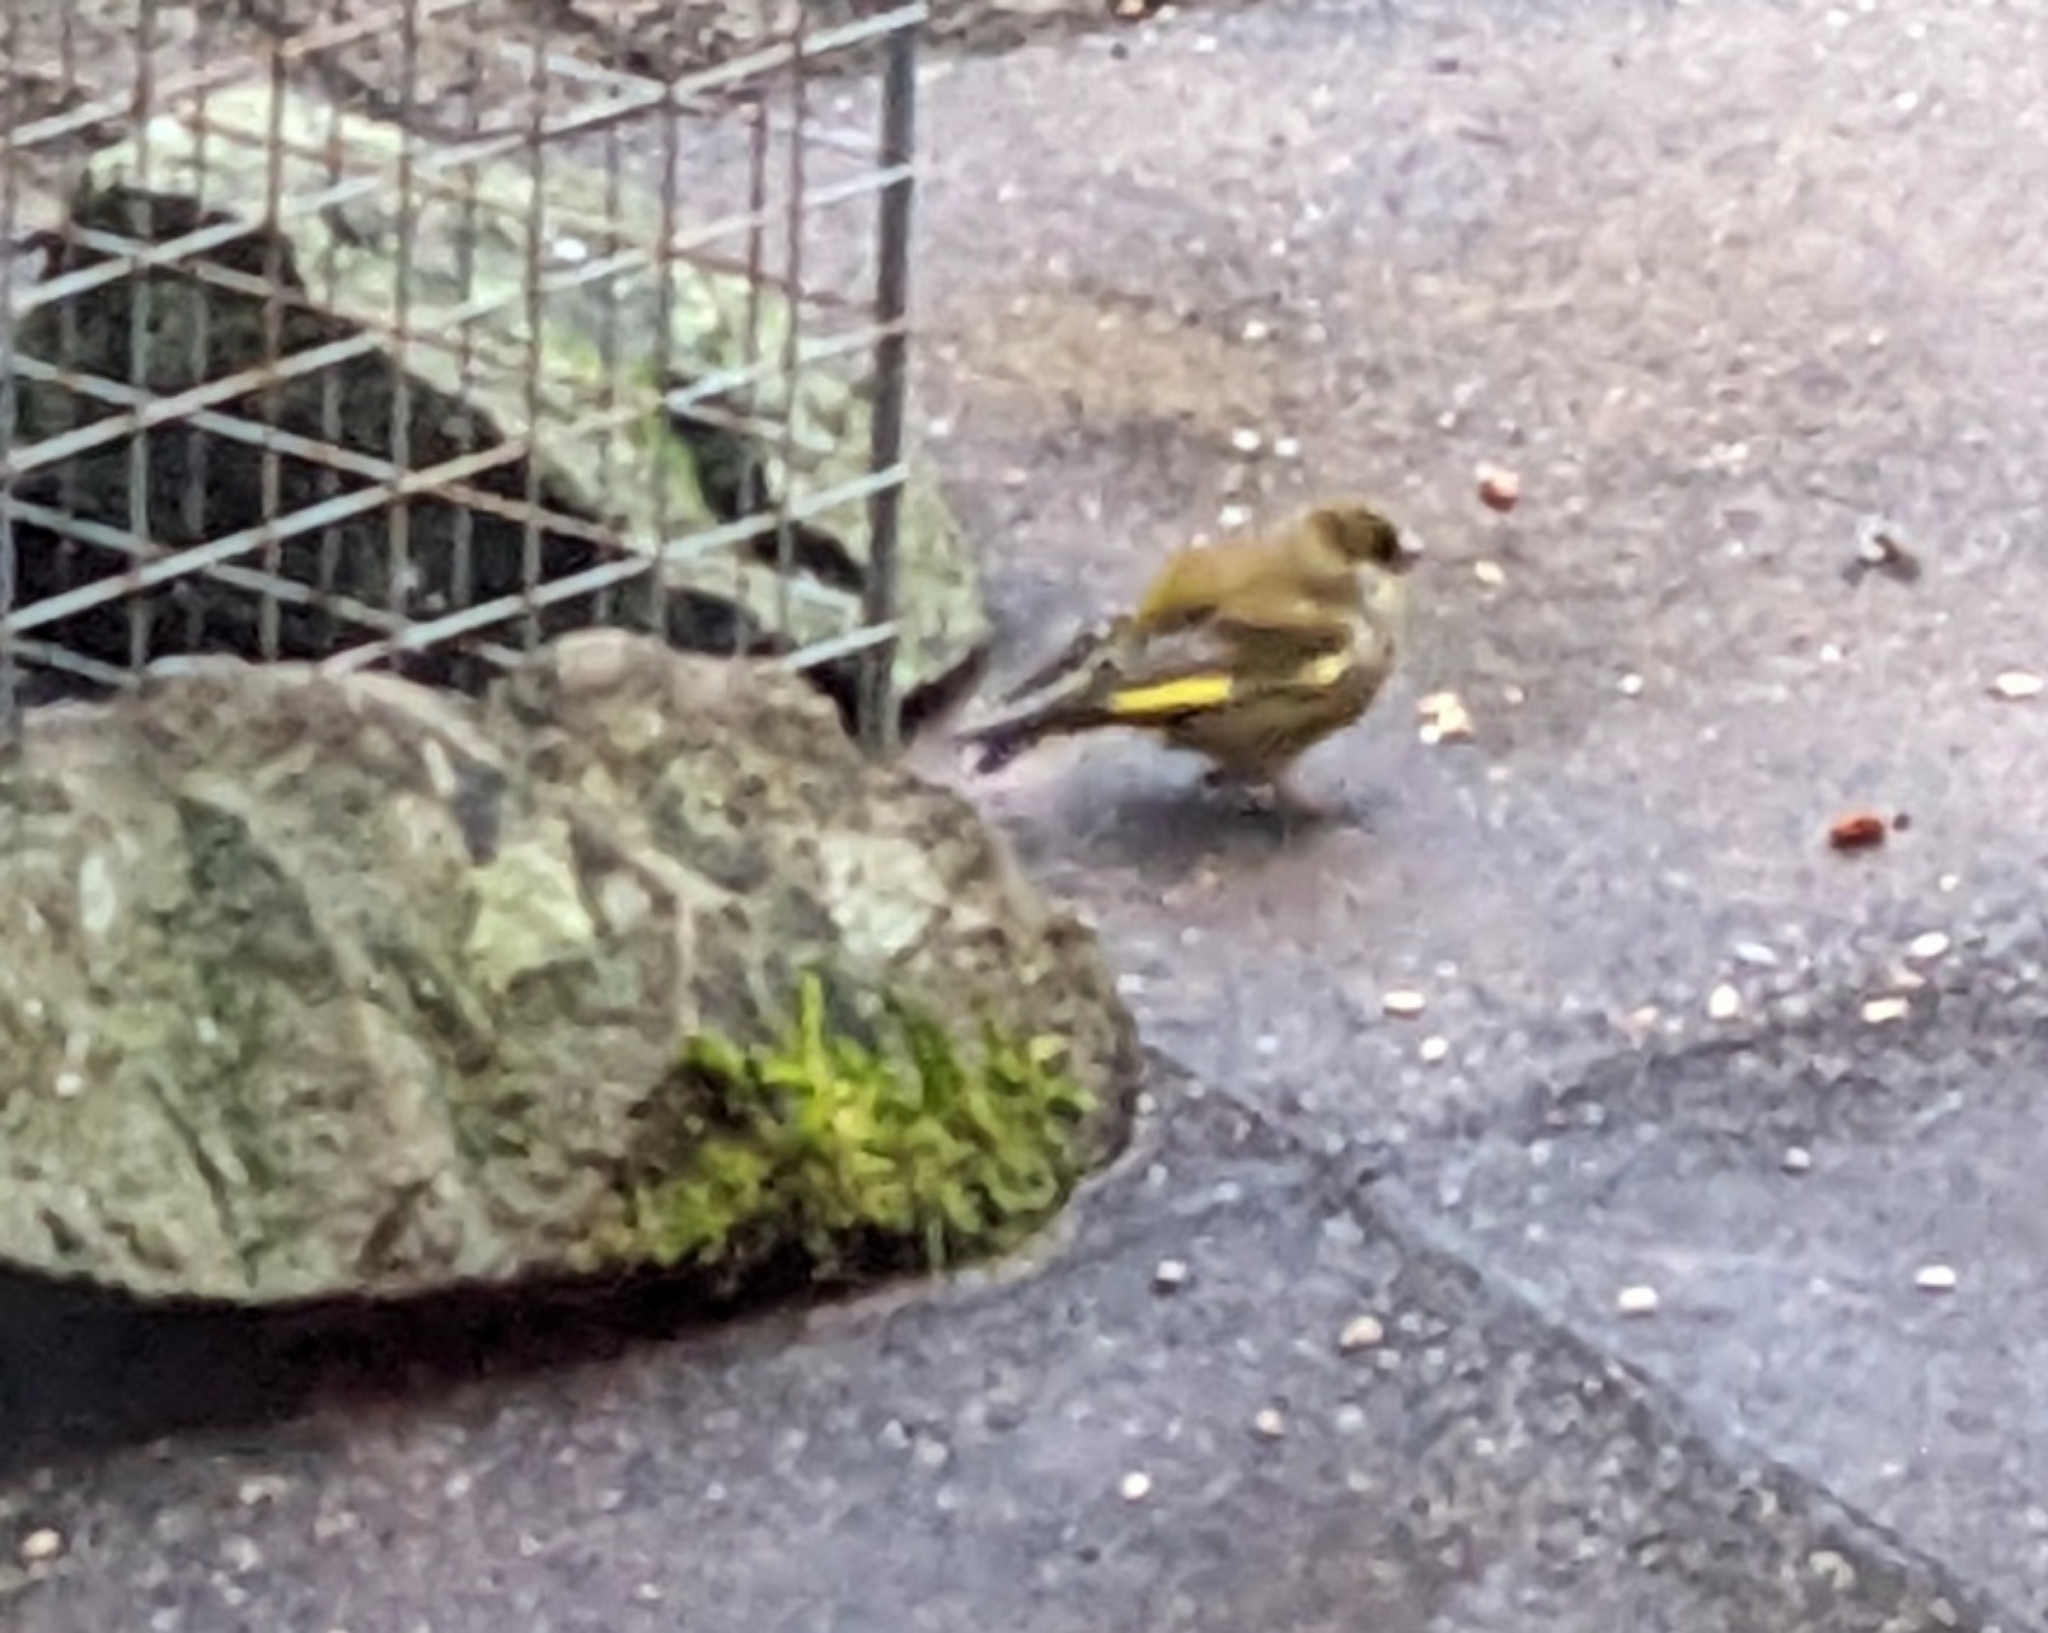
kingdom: Plantae
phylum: Tracheophyta
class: Liliopsida
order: Poales
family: Poaceae
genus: Chloris
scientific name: Chloris chloris
